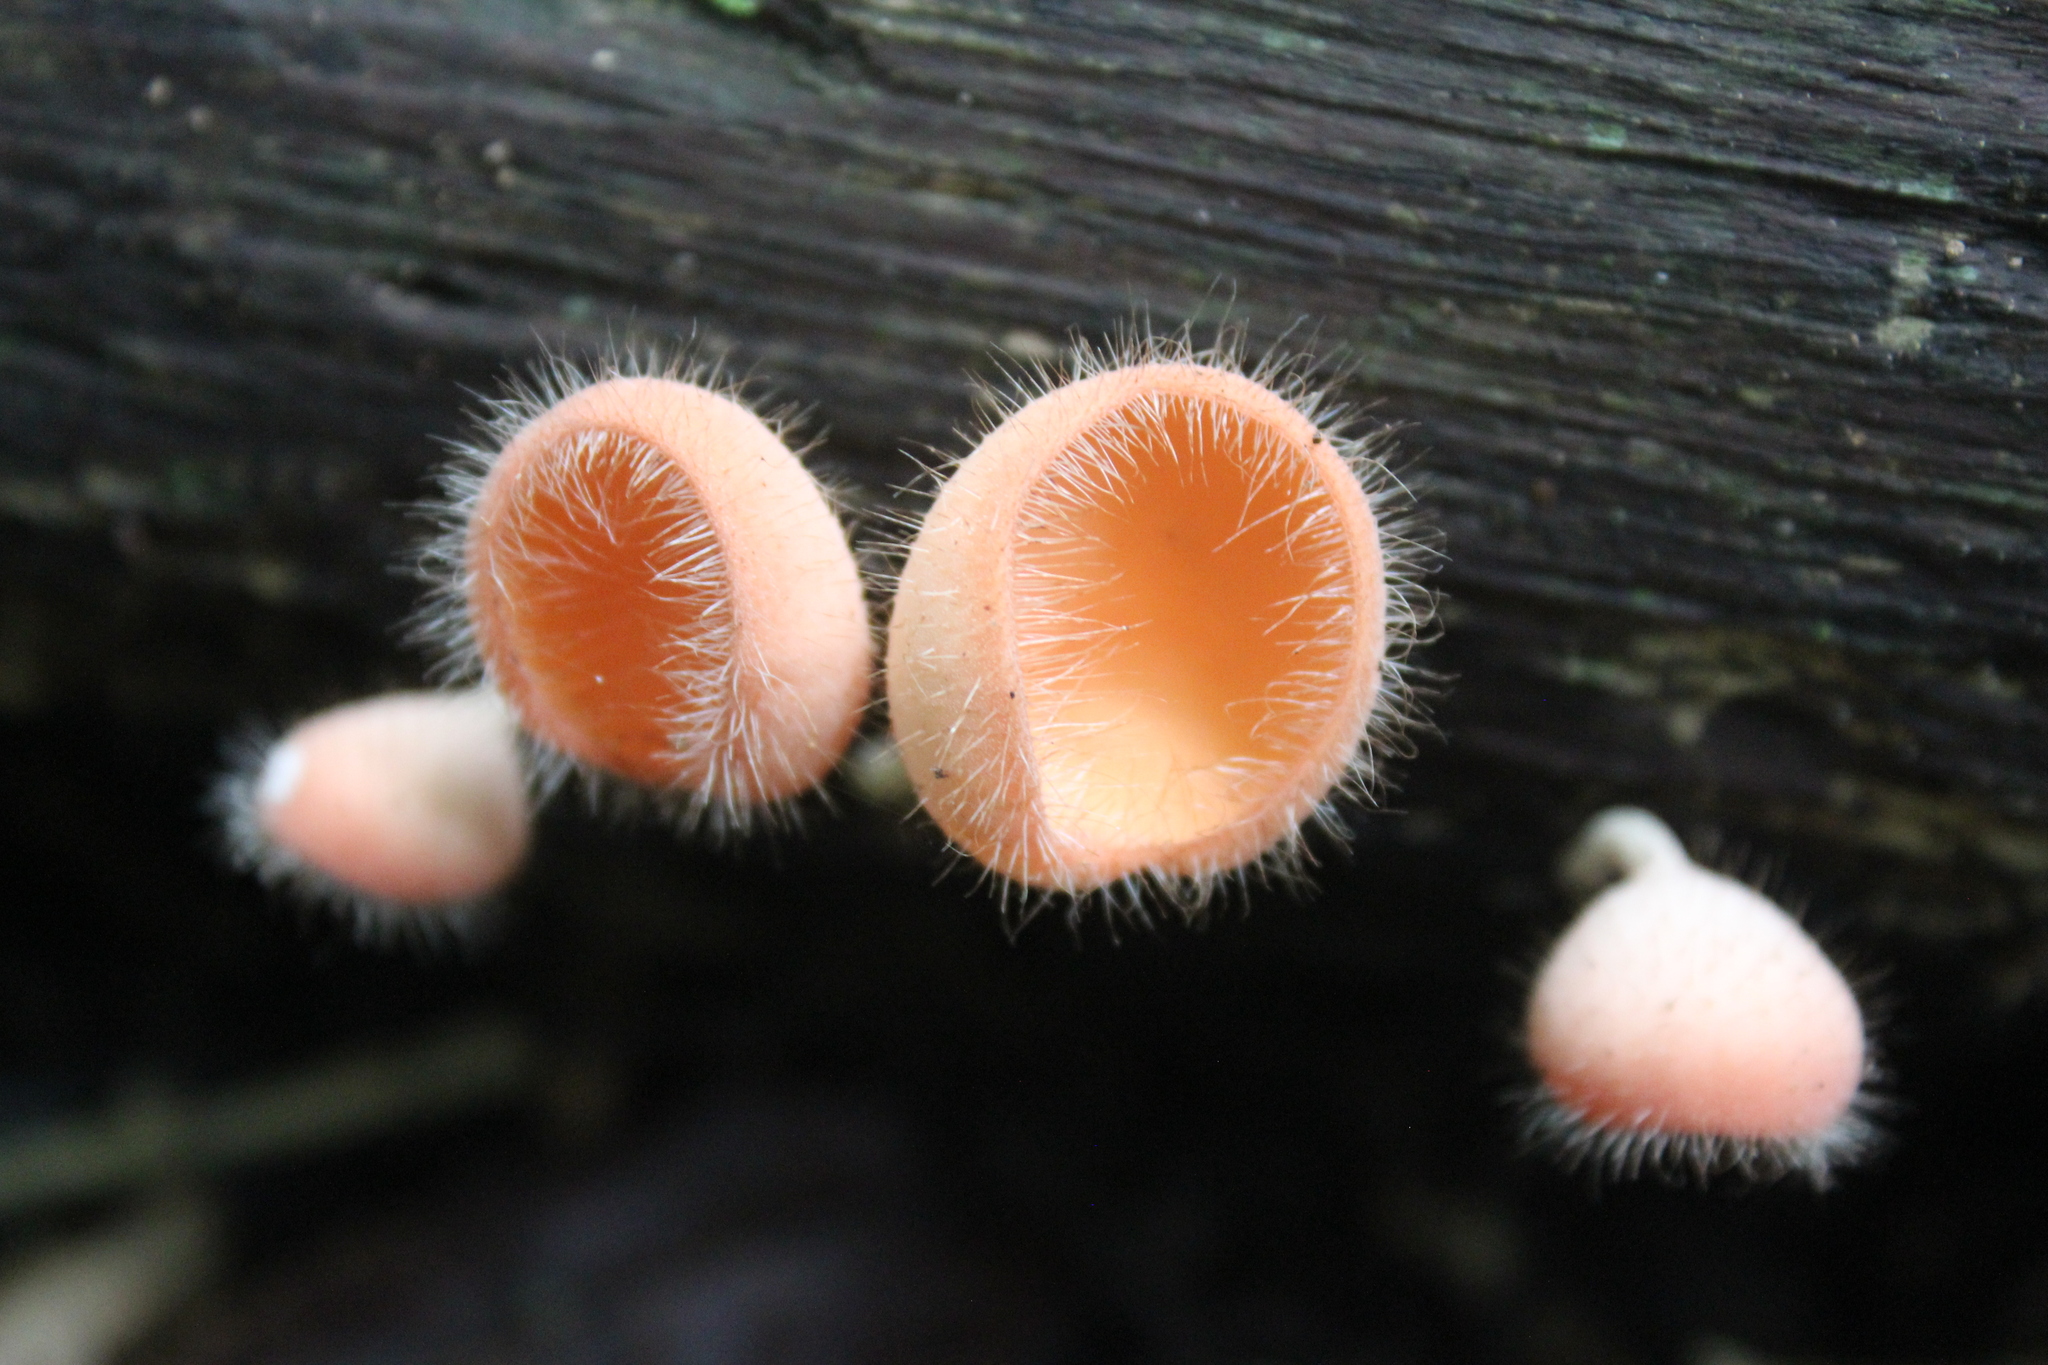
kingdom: Fungi
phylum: Ascomycota
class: Pezizomycetes
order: Pezizales
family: Sarcoscyphaceae
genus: Cookeina
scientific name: Cookeina tricholoma
